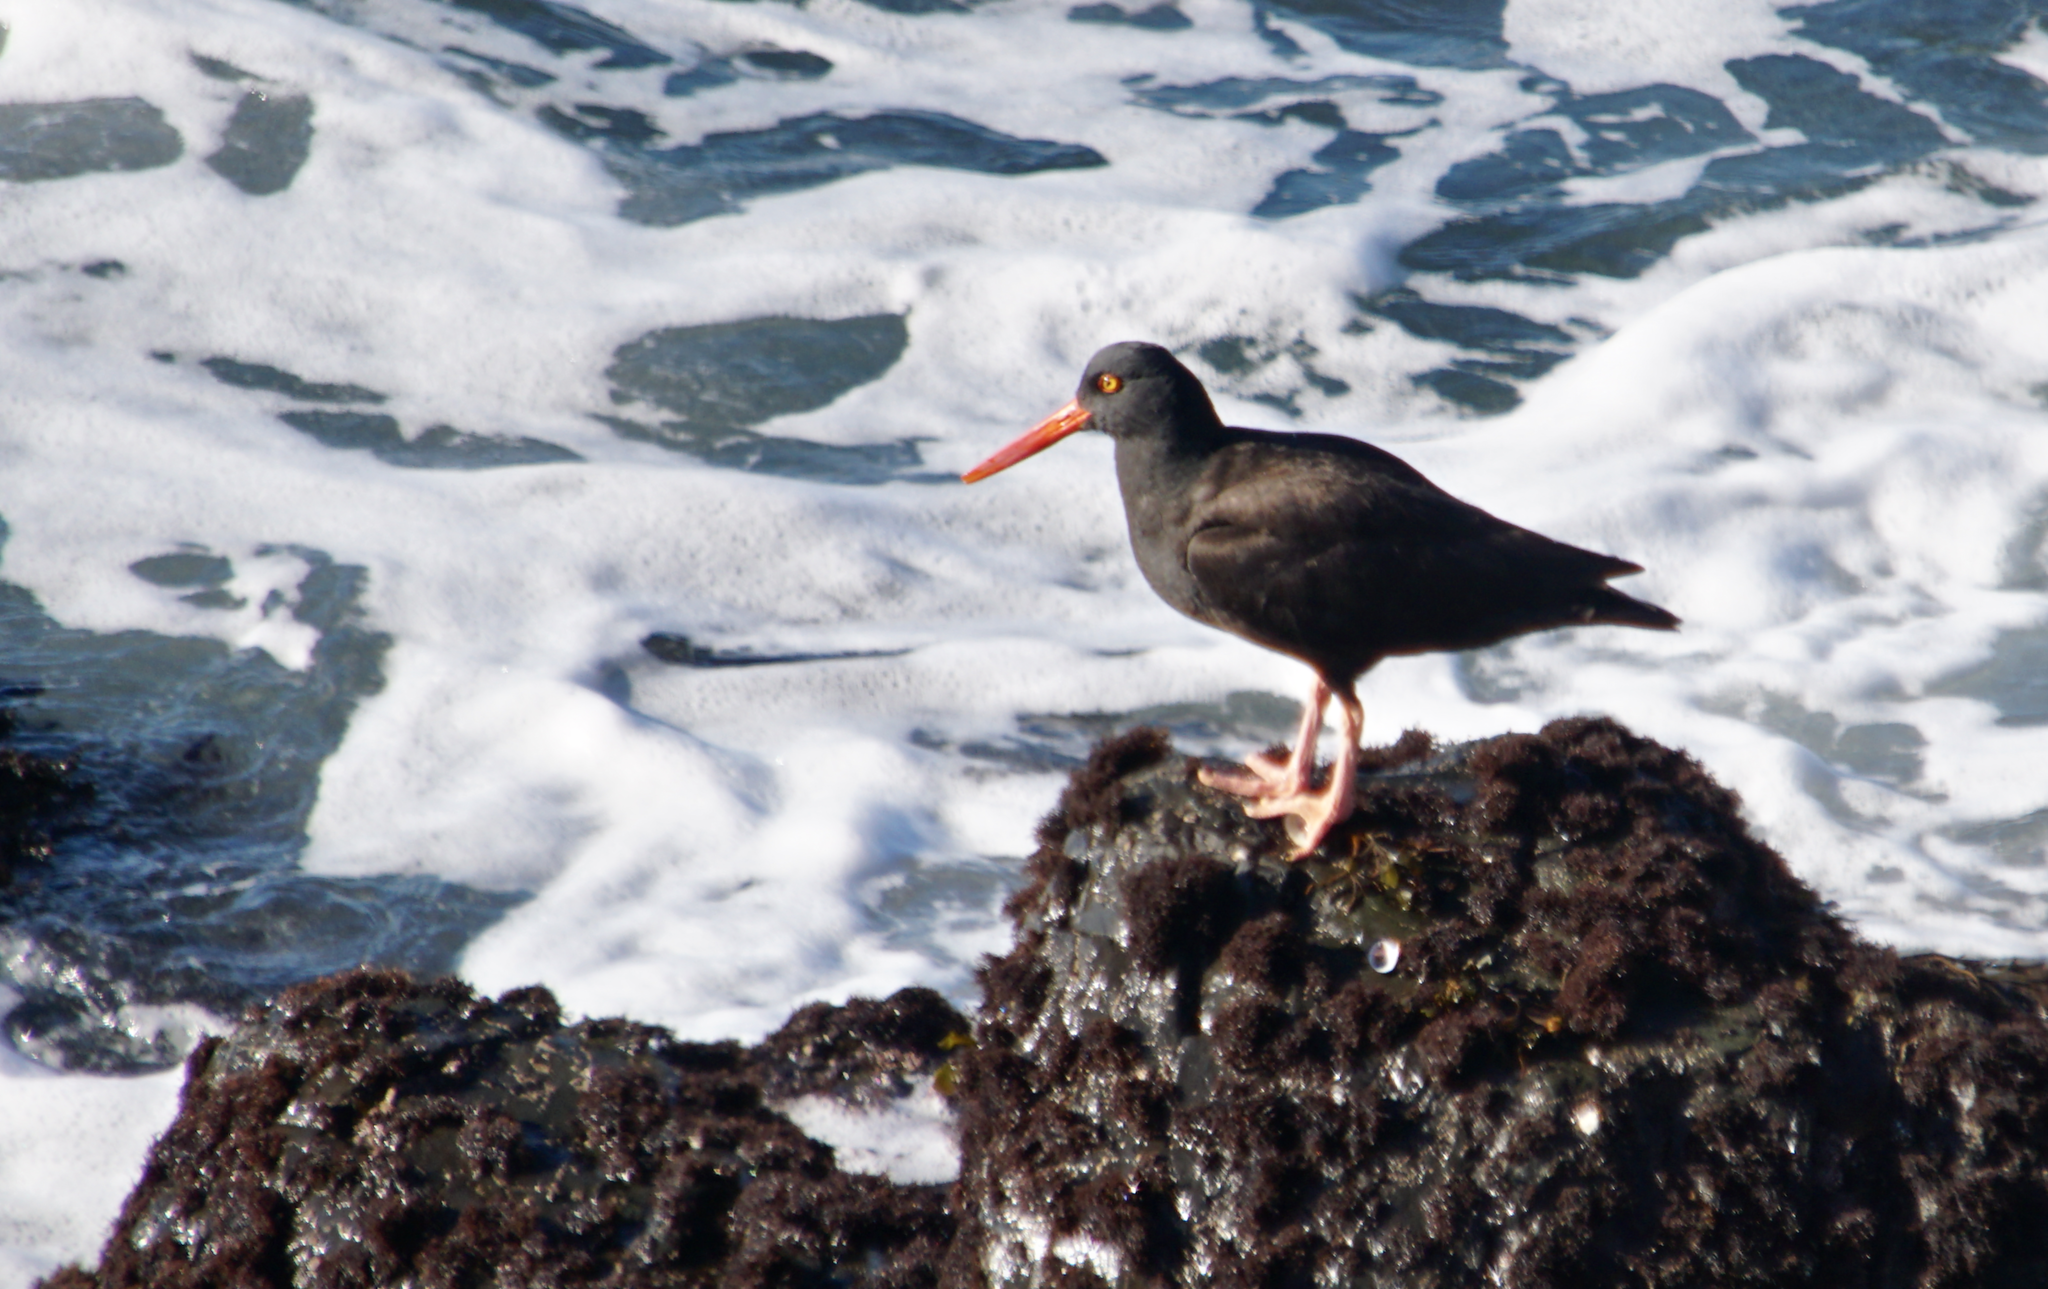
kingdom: Animalia
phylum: Chordata
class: Aves
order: Charadriiformes
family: Haematopodidae
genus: Haematopus
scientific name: Haematopus bachmani
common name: Black oystercatcher
